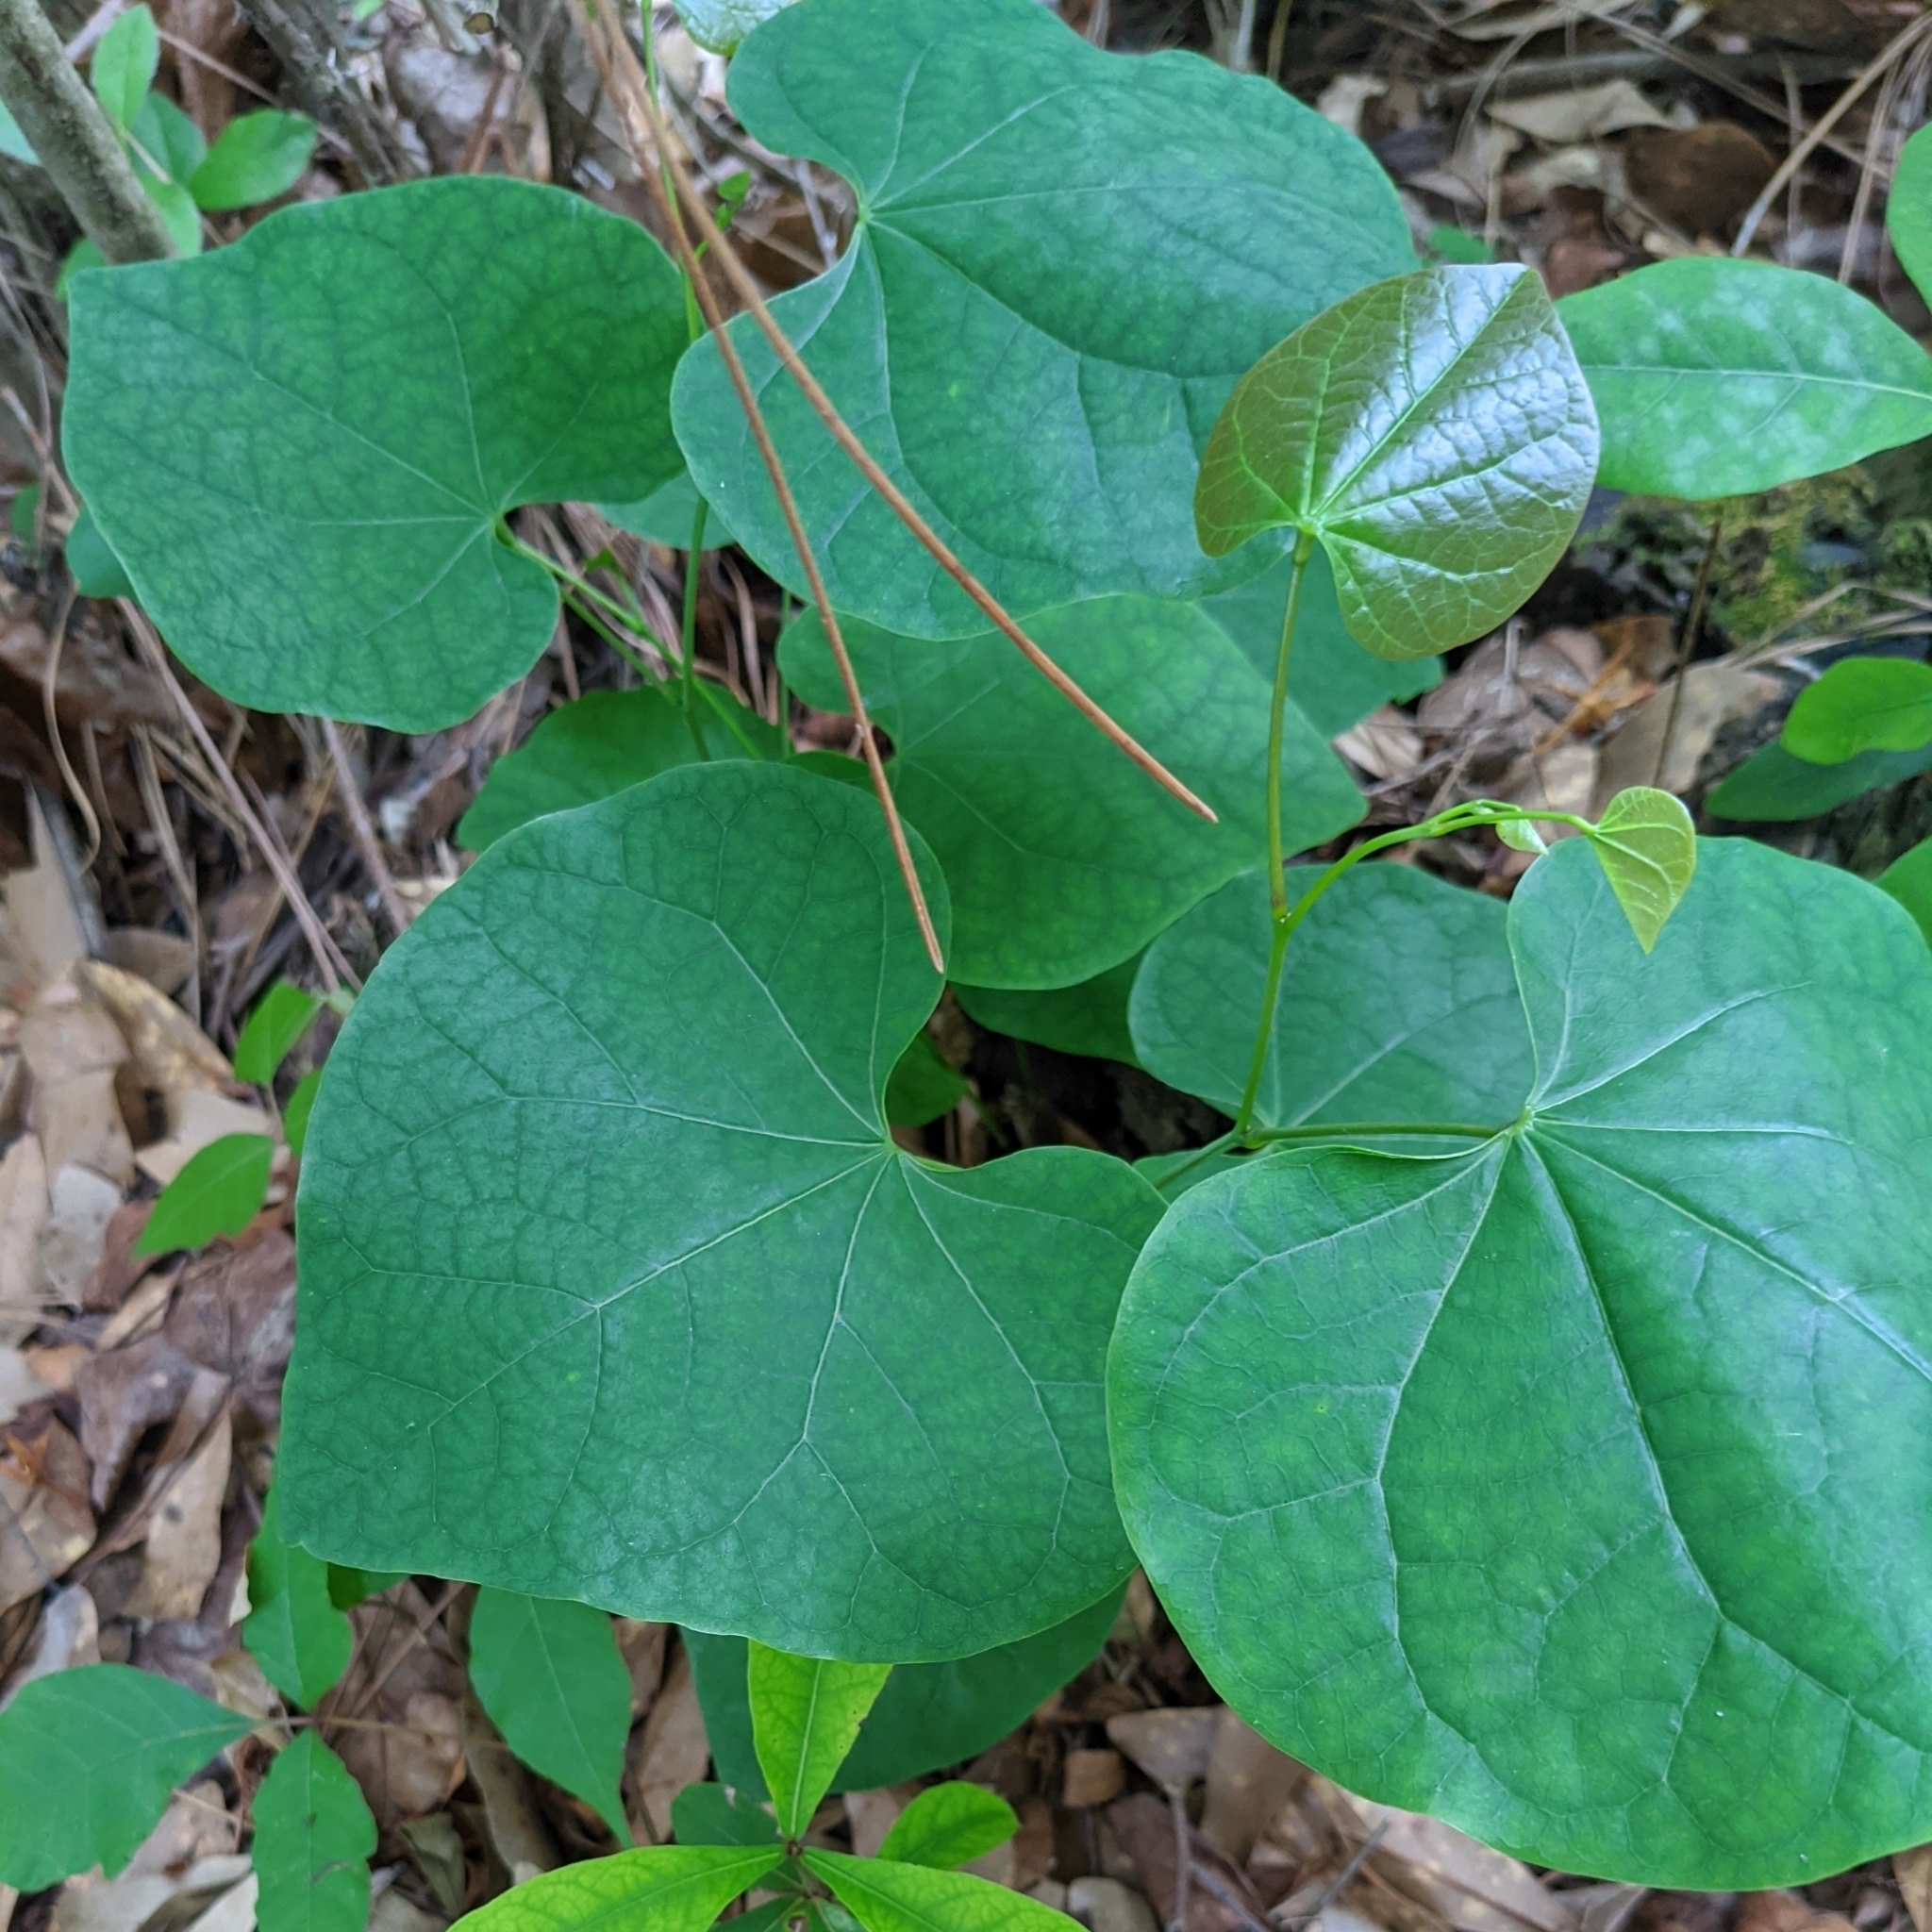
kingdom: Plantae
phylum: Tracheophyta
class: Magnoliopsida
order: Fabales
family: Fabaceae
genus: Cercis
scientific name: Cercis canadensis
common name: Eastern redbud
